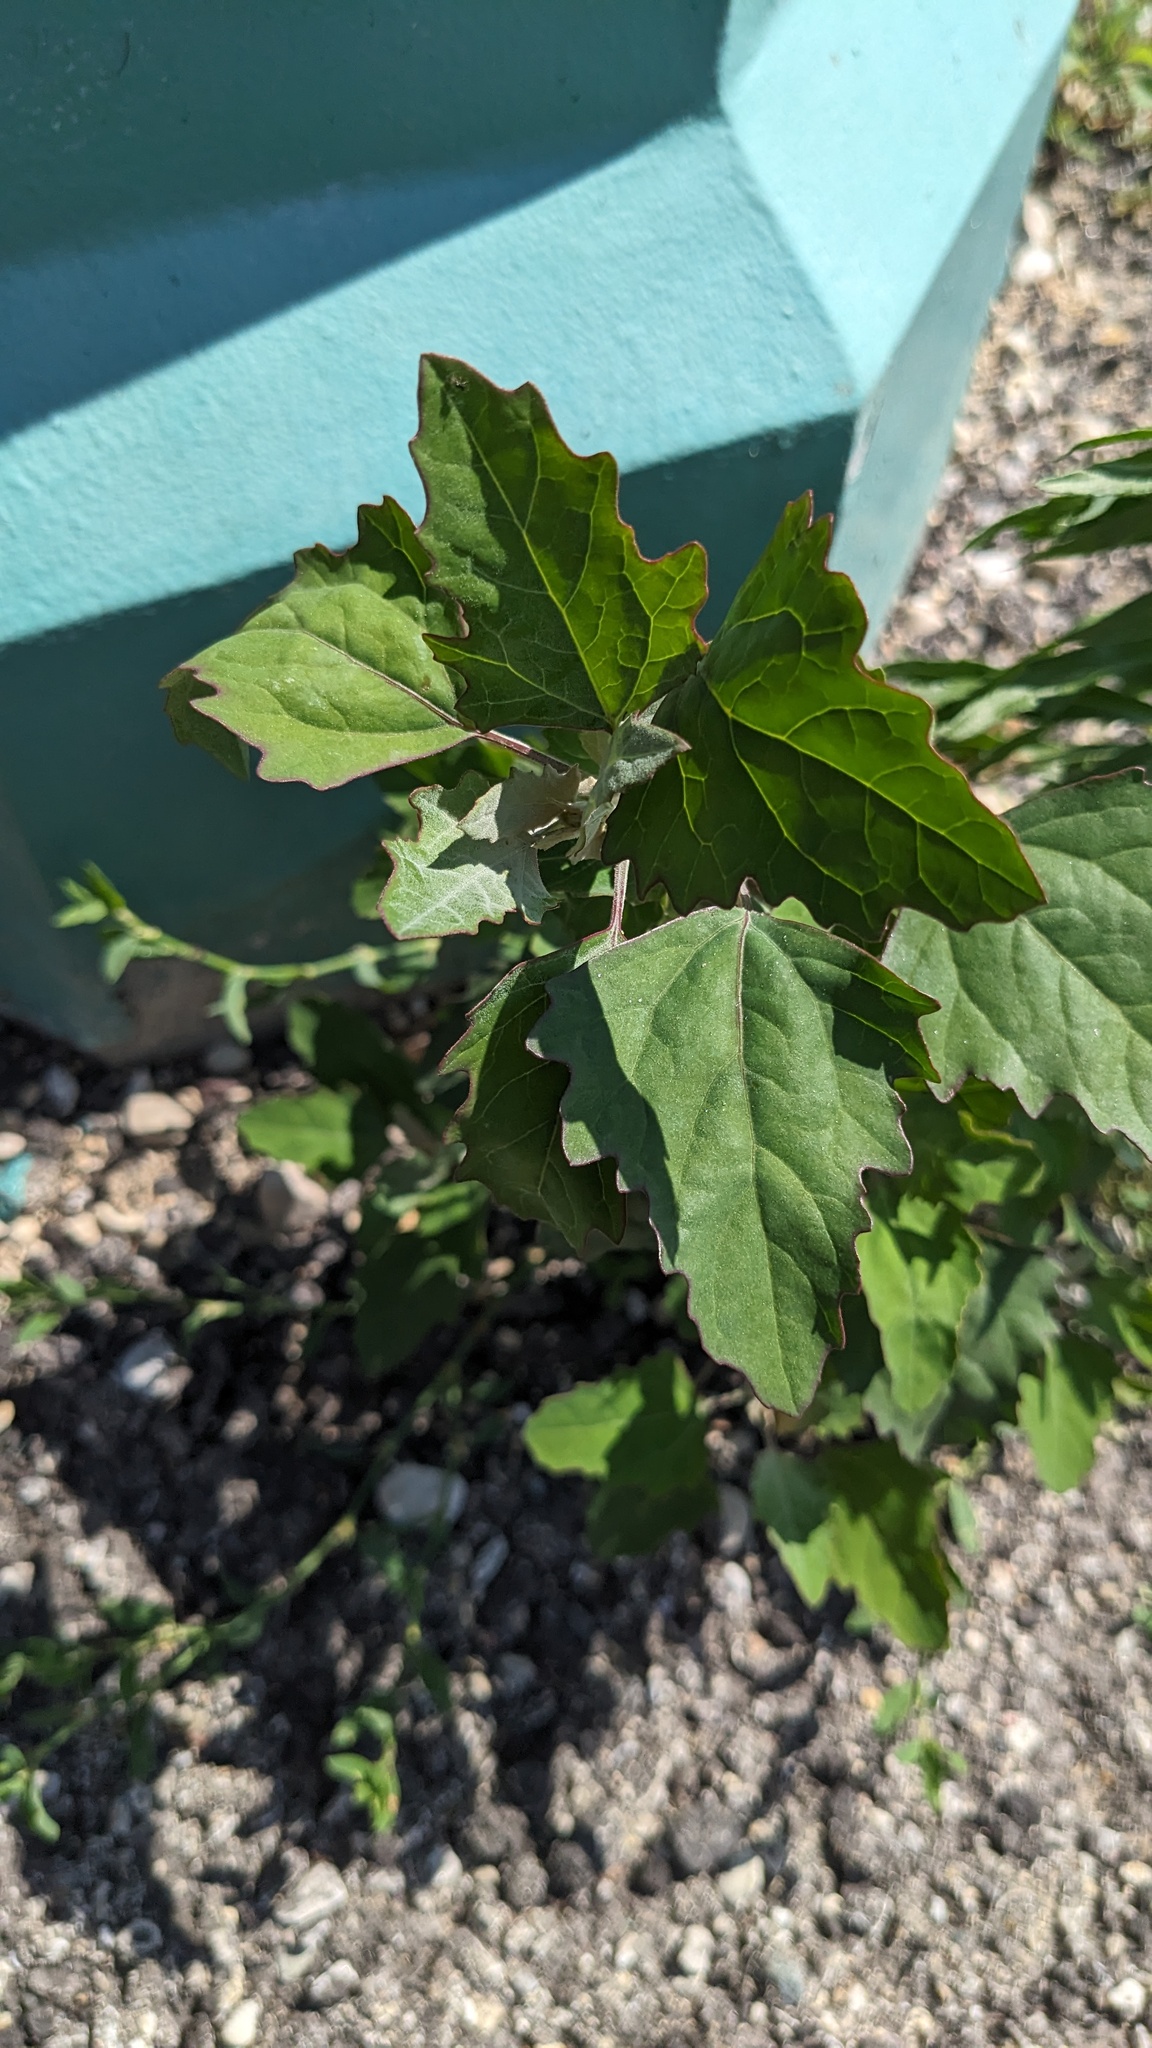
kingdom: Plantae
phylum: Tracheophyta
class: Magnoliopsida
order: Caryophyllales
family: Amaranthaceae
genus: Chenopodium
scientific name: Chenopodium album
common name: Fat-hen
